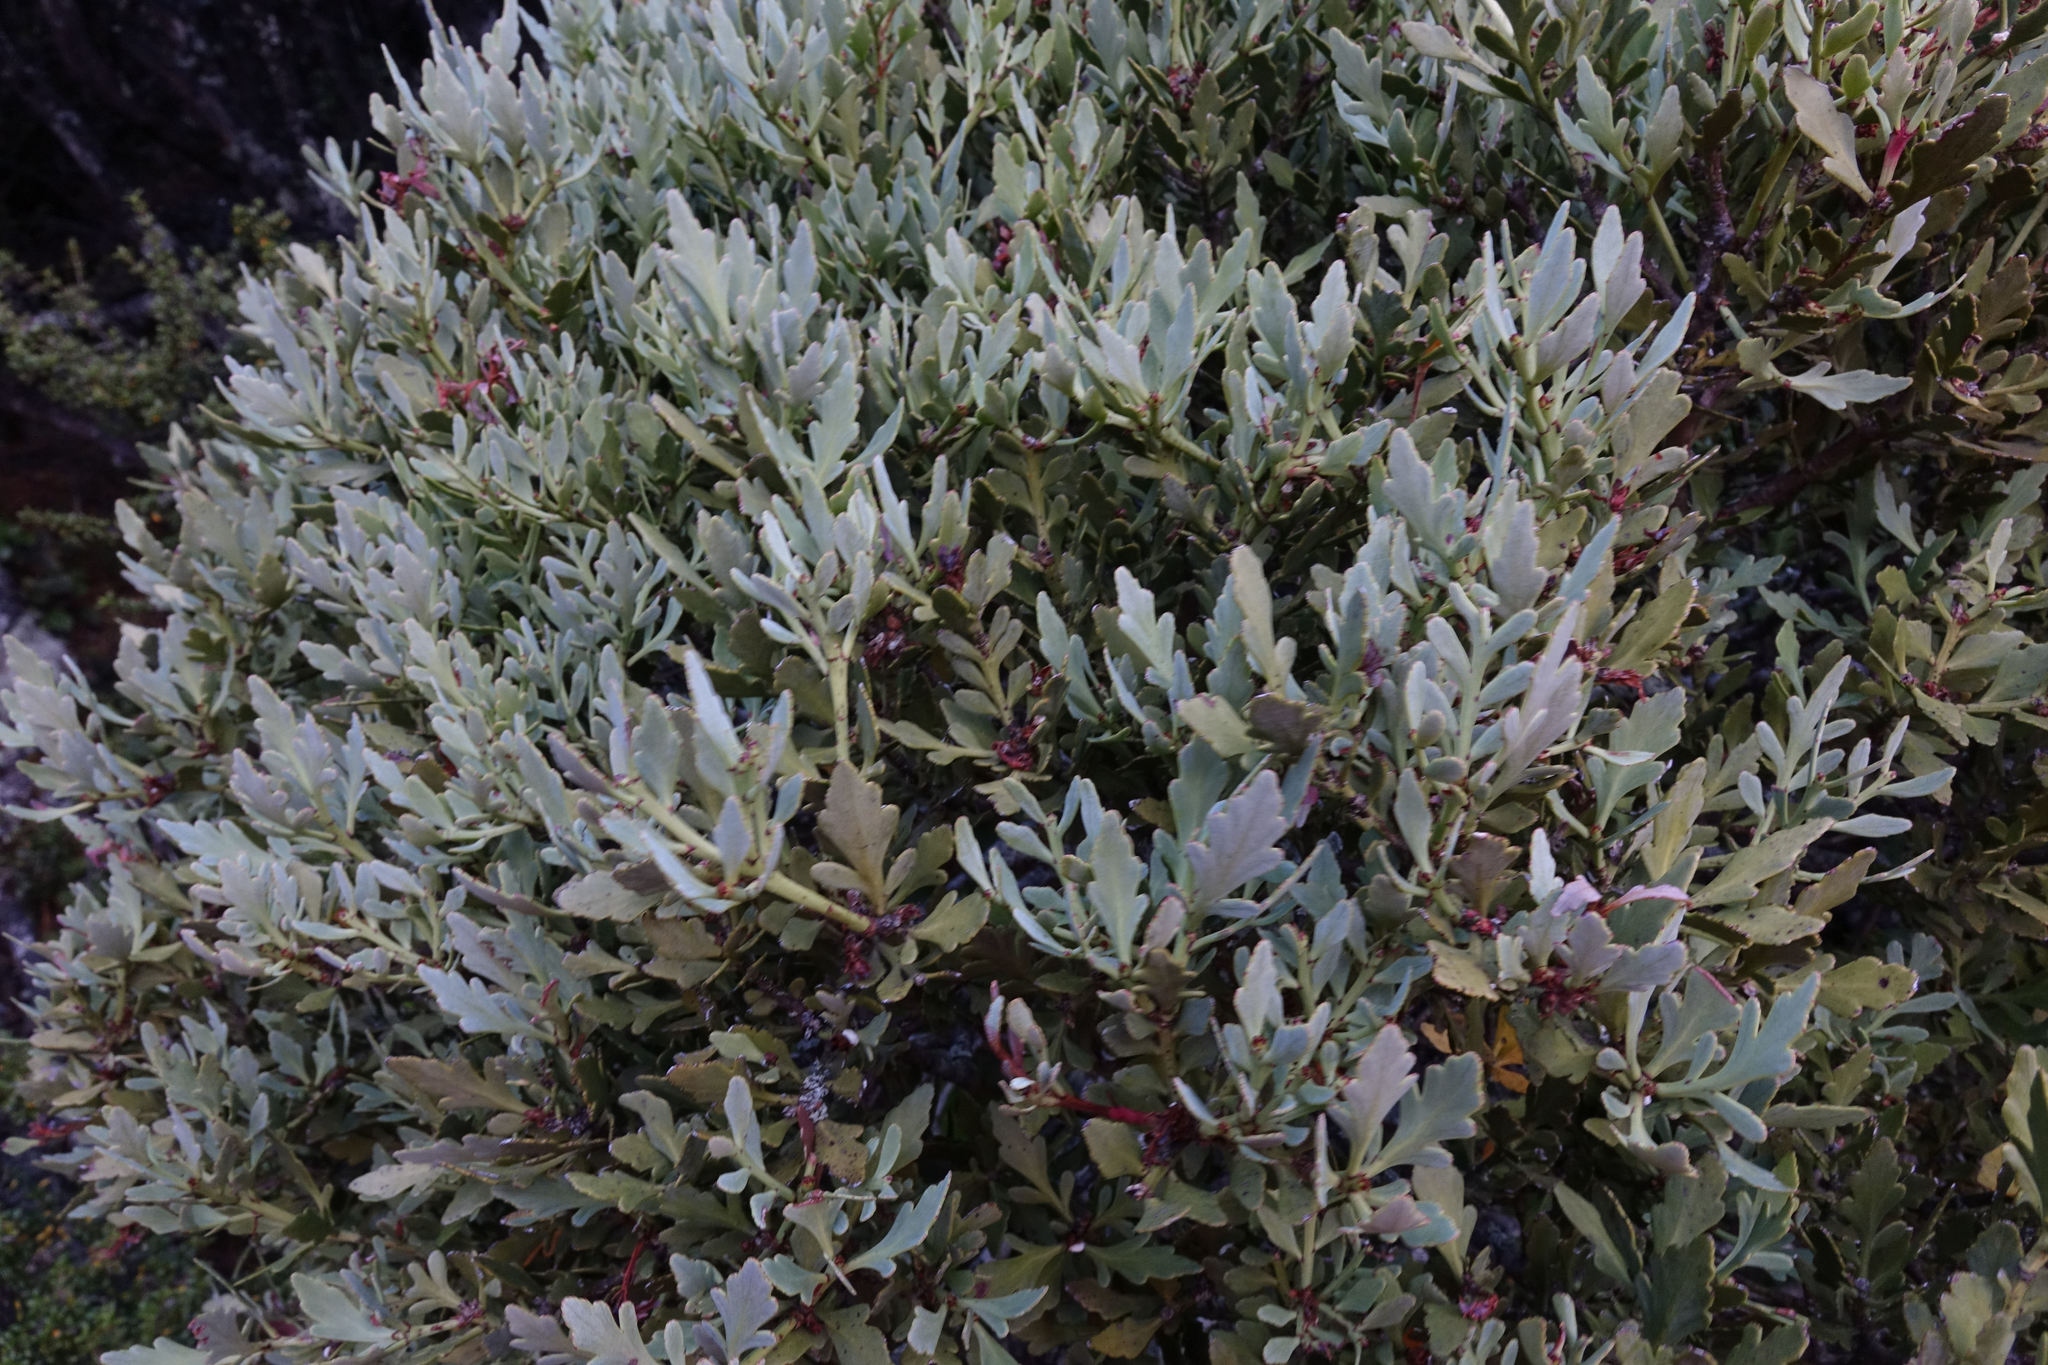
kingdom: Plantae
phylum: Tracheophyta
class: Pinopsida
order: Pinales
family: Phyllocladaceae
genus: Phyllocladus
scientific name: Phyllocladus trichomanoides
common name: Celery pine
